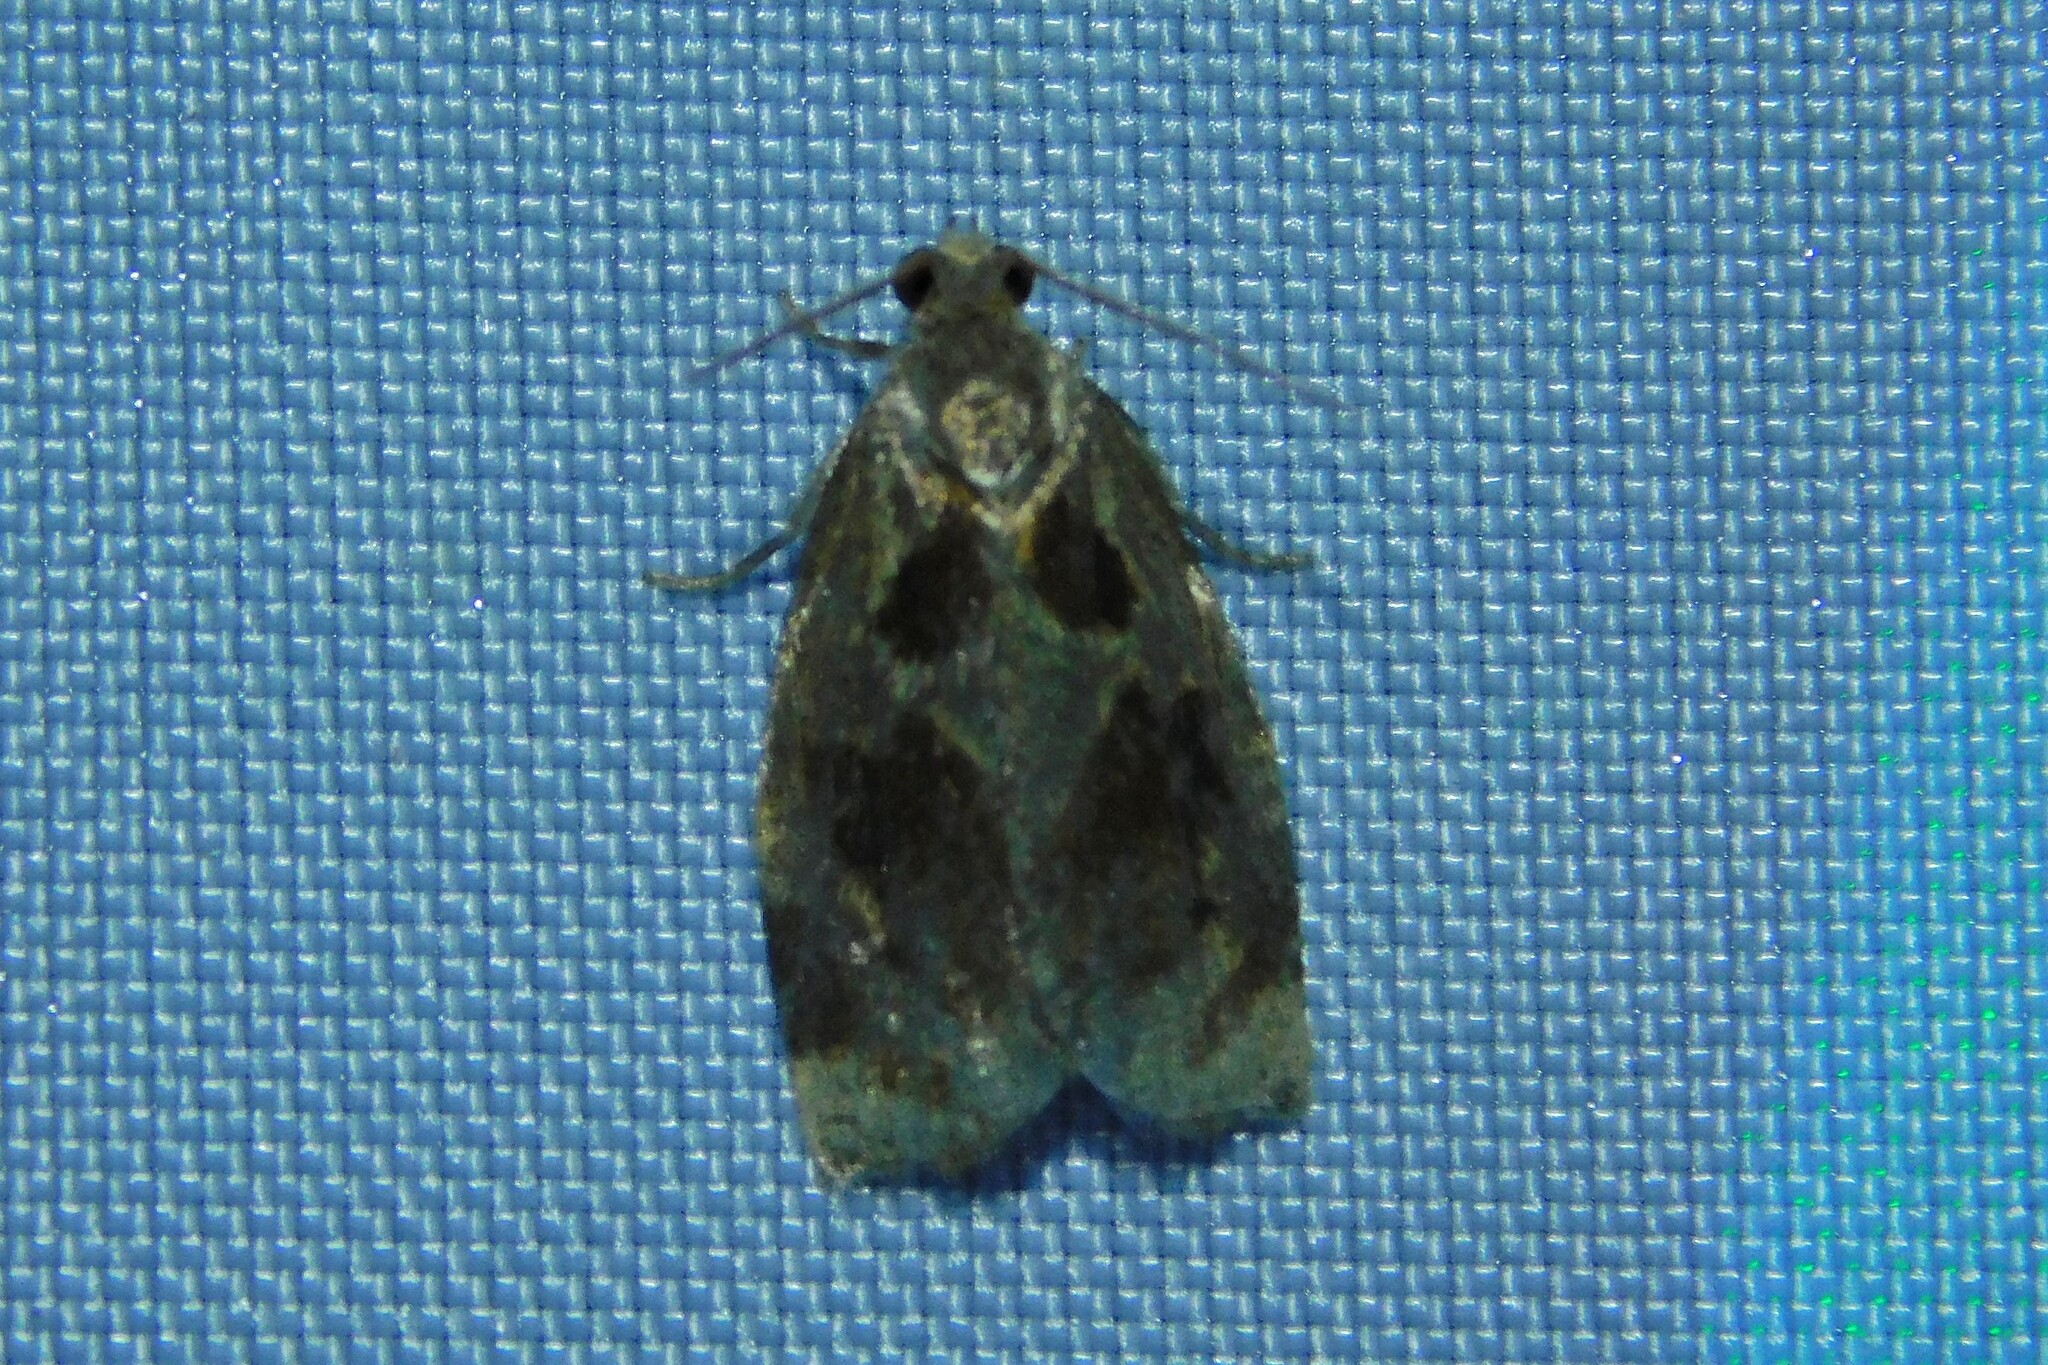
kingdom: Animalia
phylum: Arthropoda
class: Insecta
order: Lepidoptera
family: Tortricidae
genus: Archips
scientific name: Archips crataegana
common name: Brown oak tortrix
